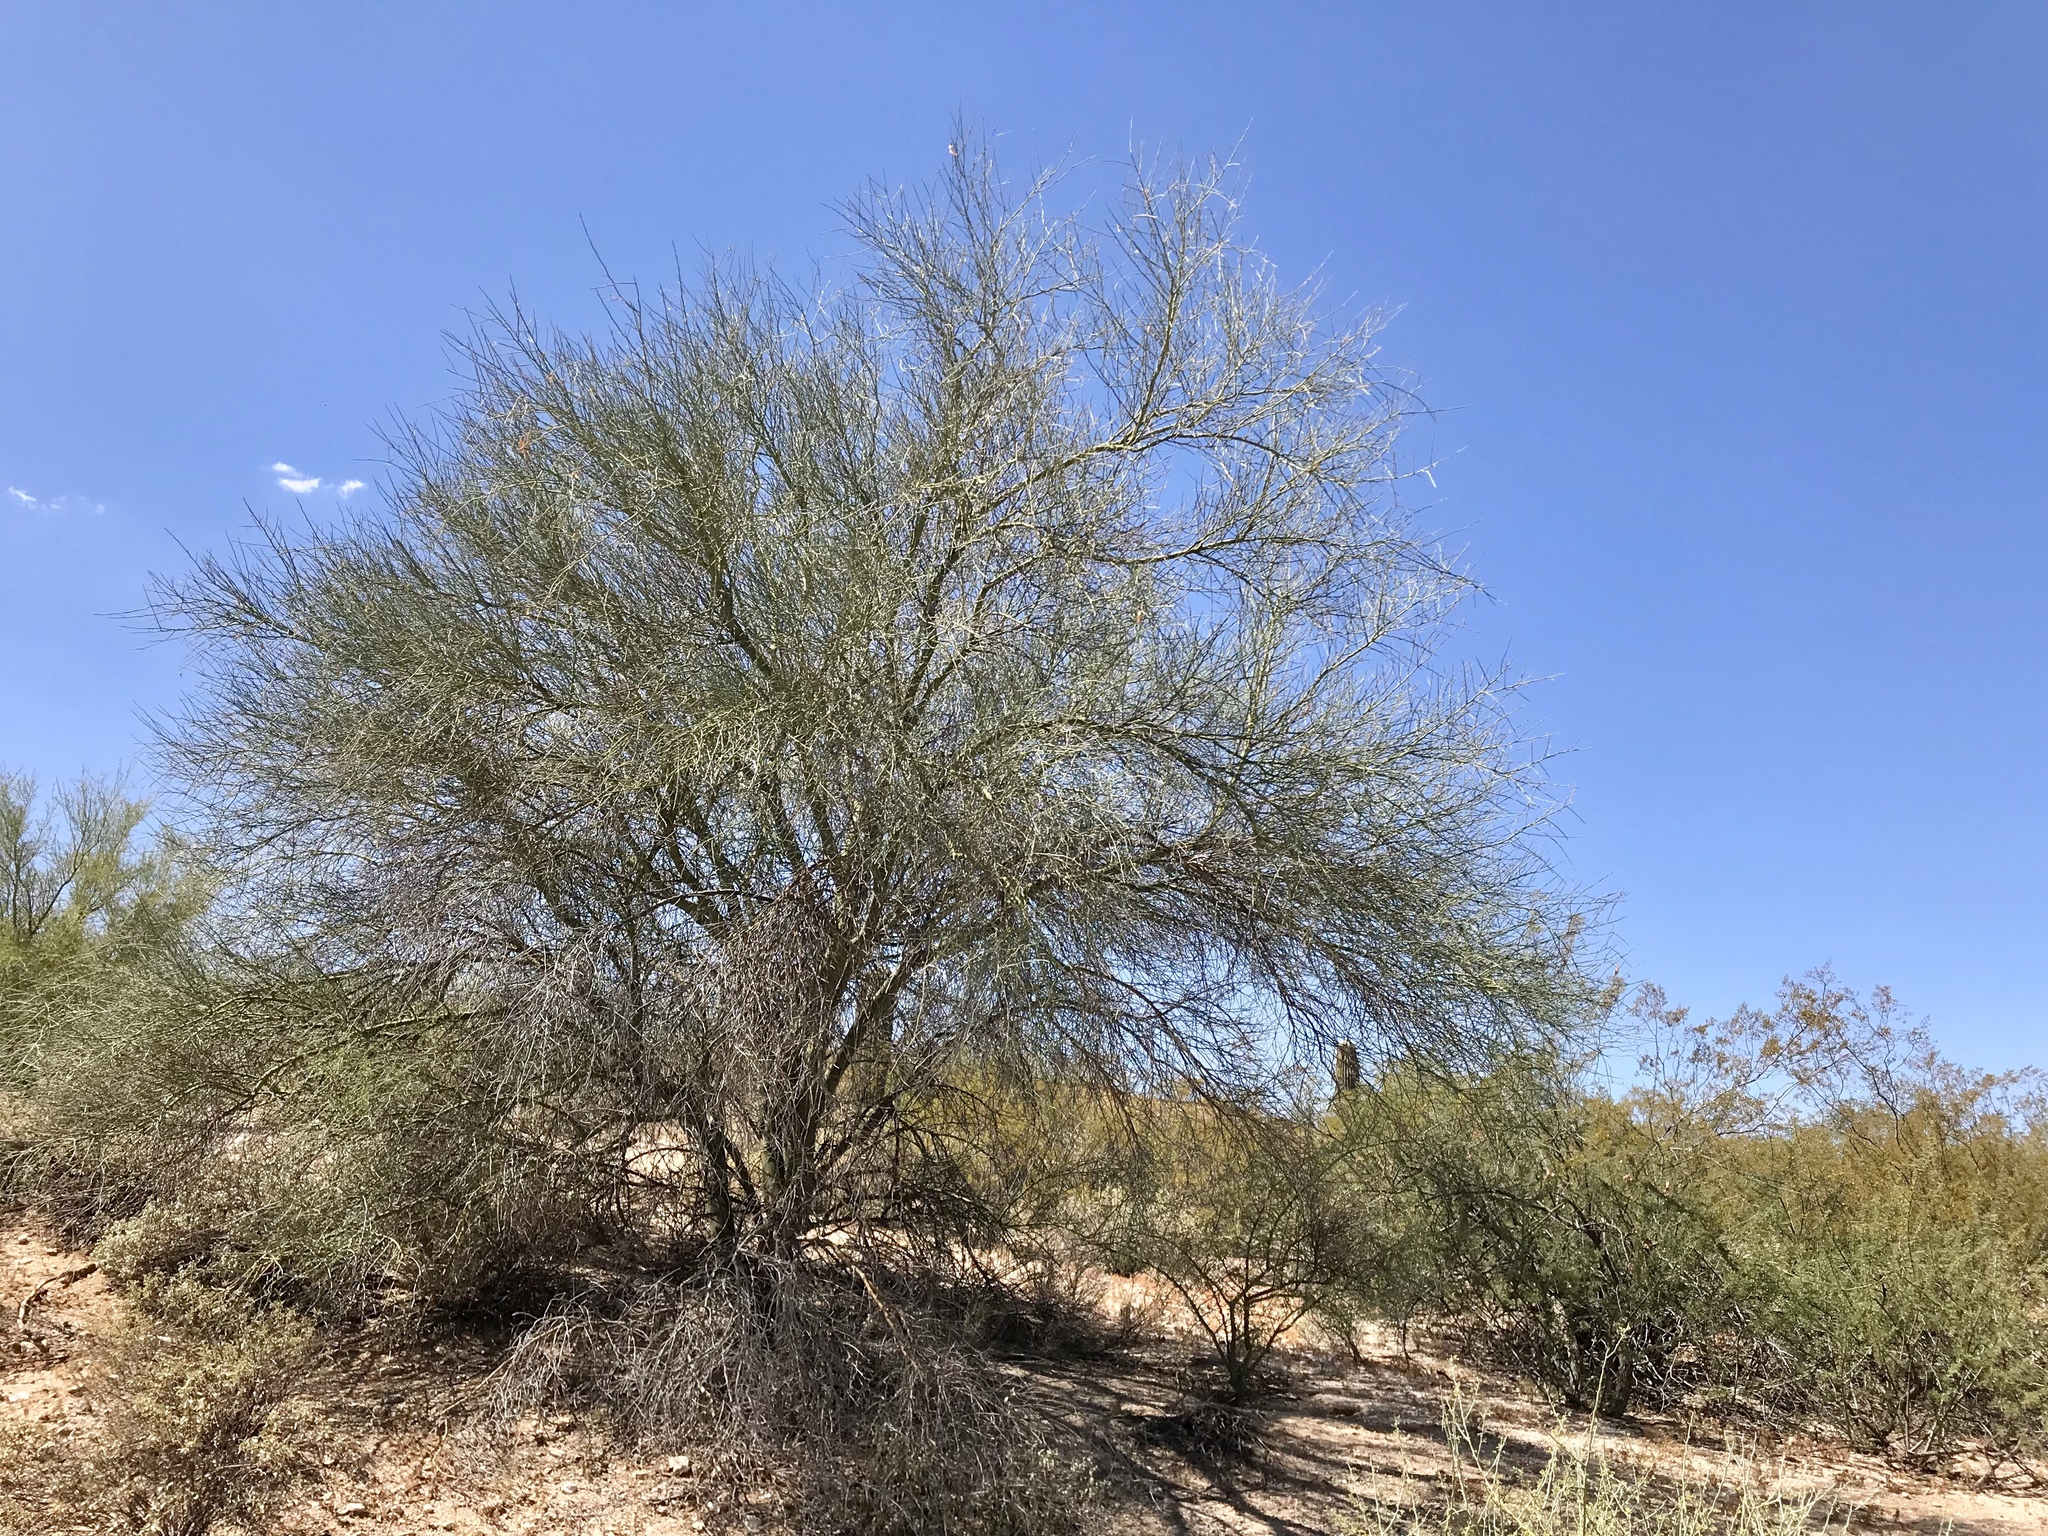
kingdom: Plantae
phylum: Tracheophyta
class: Magnoliopsida
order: Fabales
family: Fabaceae
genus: Parkinsonia
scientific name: Parkinsonia florida
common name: Blue paloverde
